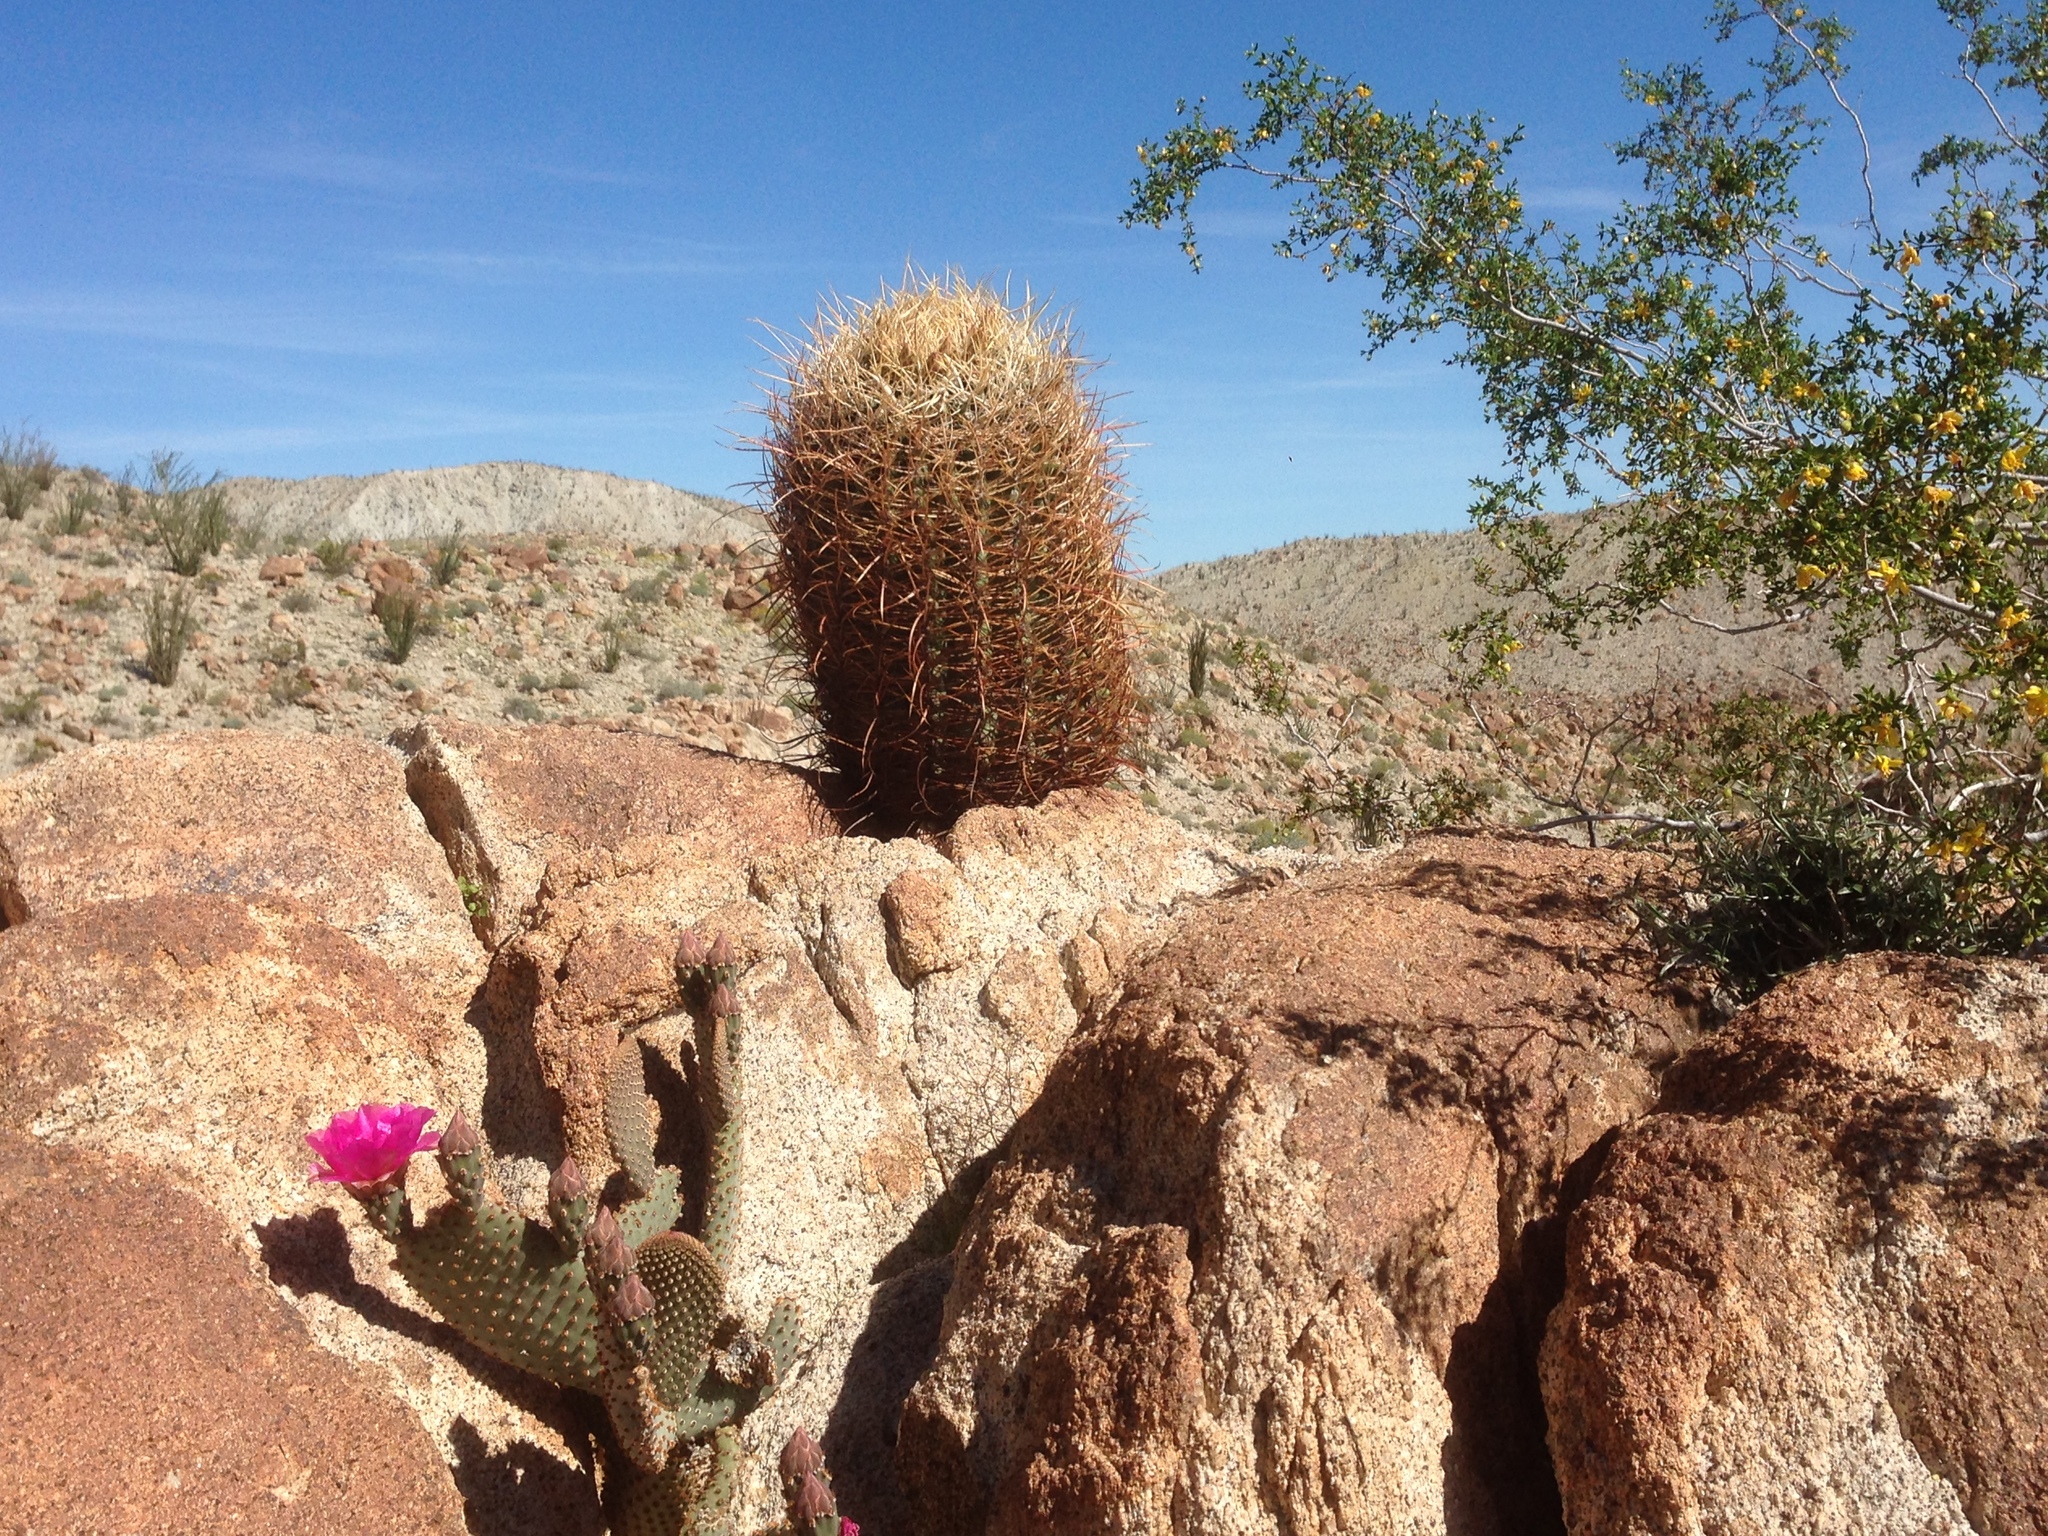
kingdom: Plantae
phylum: Tracheophyta
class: Magnoliopsida
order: Zygophyllales
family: Zygophyllaceae
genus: Larrea
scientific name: Larrea tridentata
